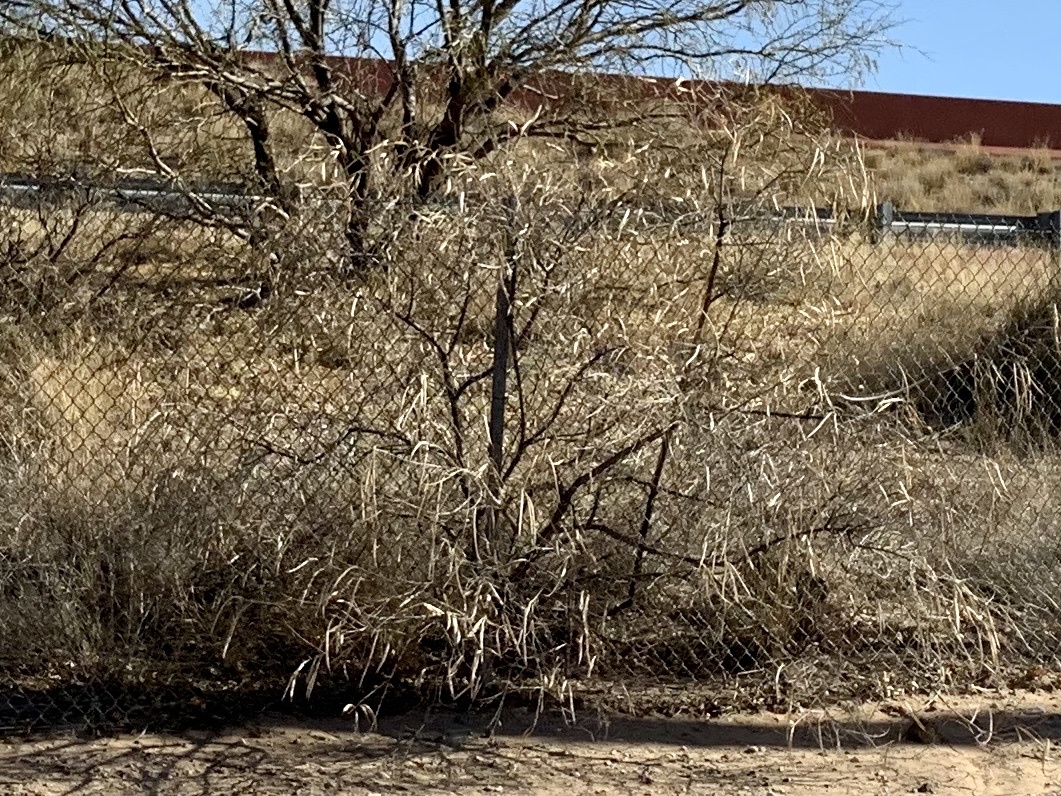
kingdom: Plantae
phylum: Tracheophyta
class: Magnoliopsida
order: Lamiales
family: Bignoniaceae
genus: Chilopsis
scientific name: Chilopsis linearis
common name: Desert-willow
